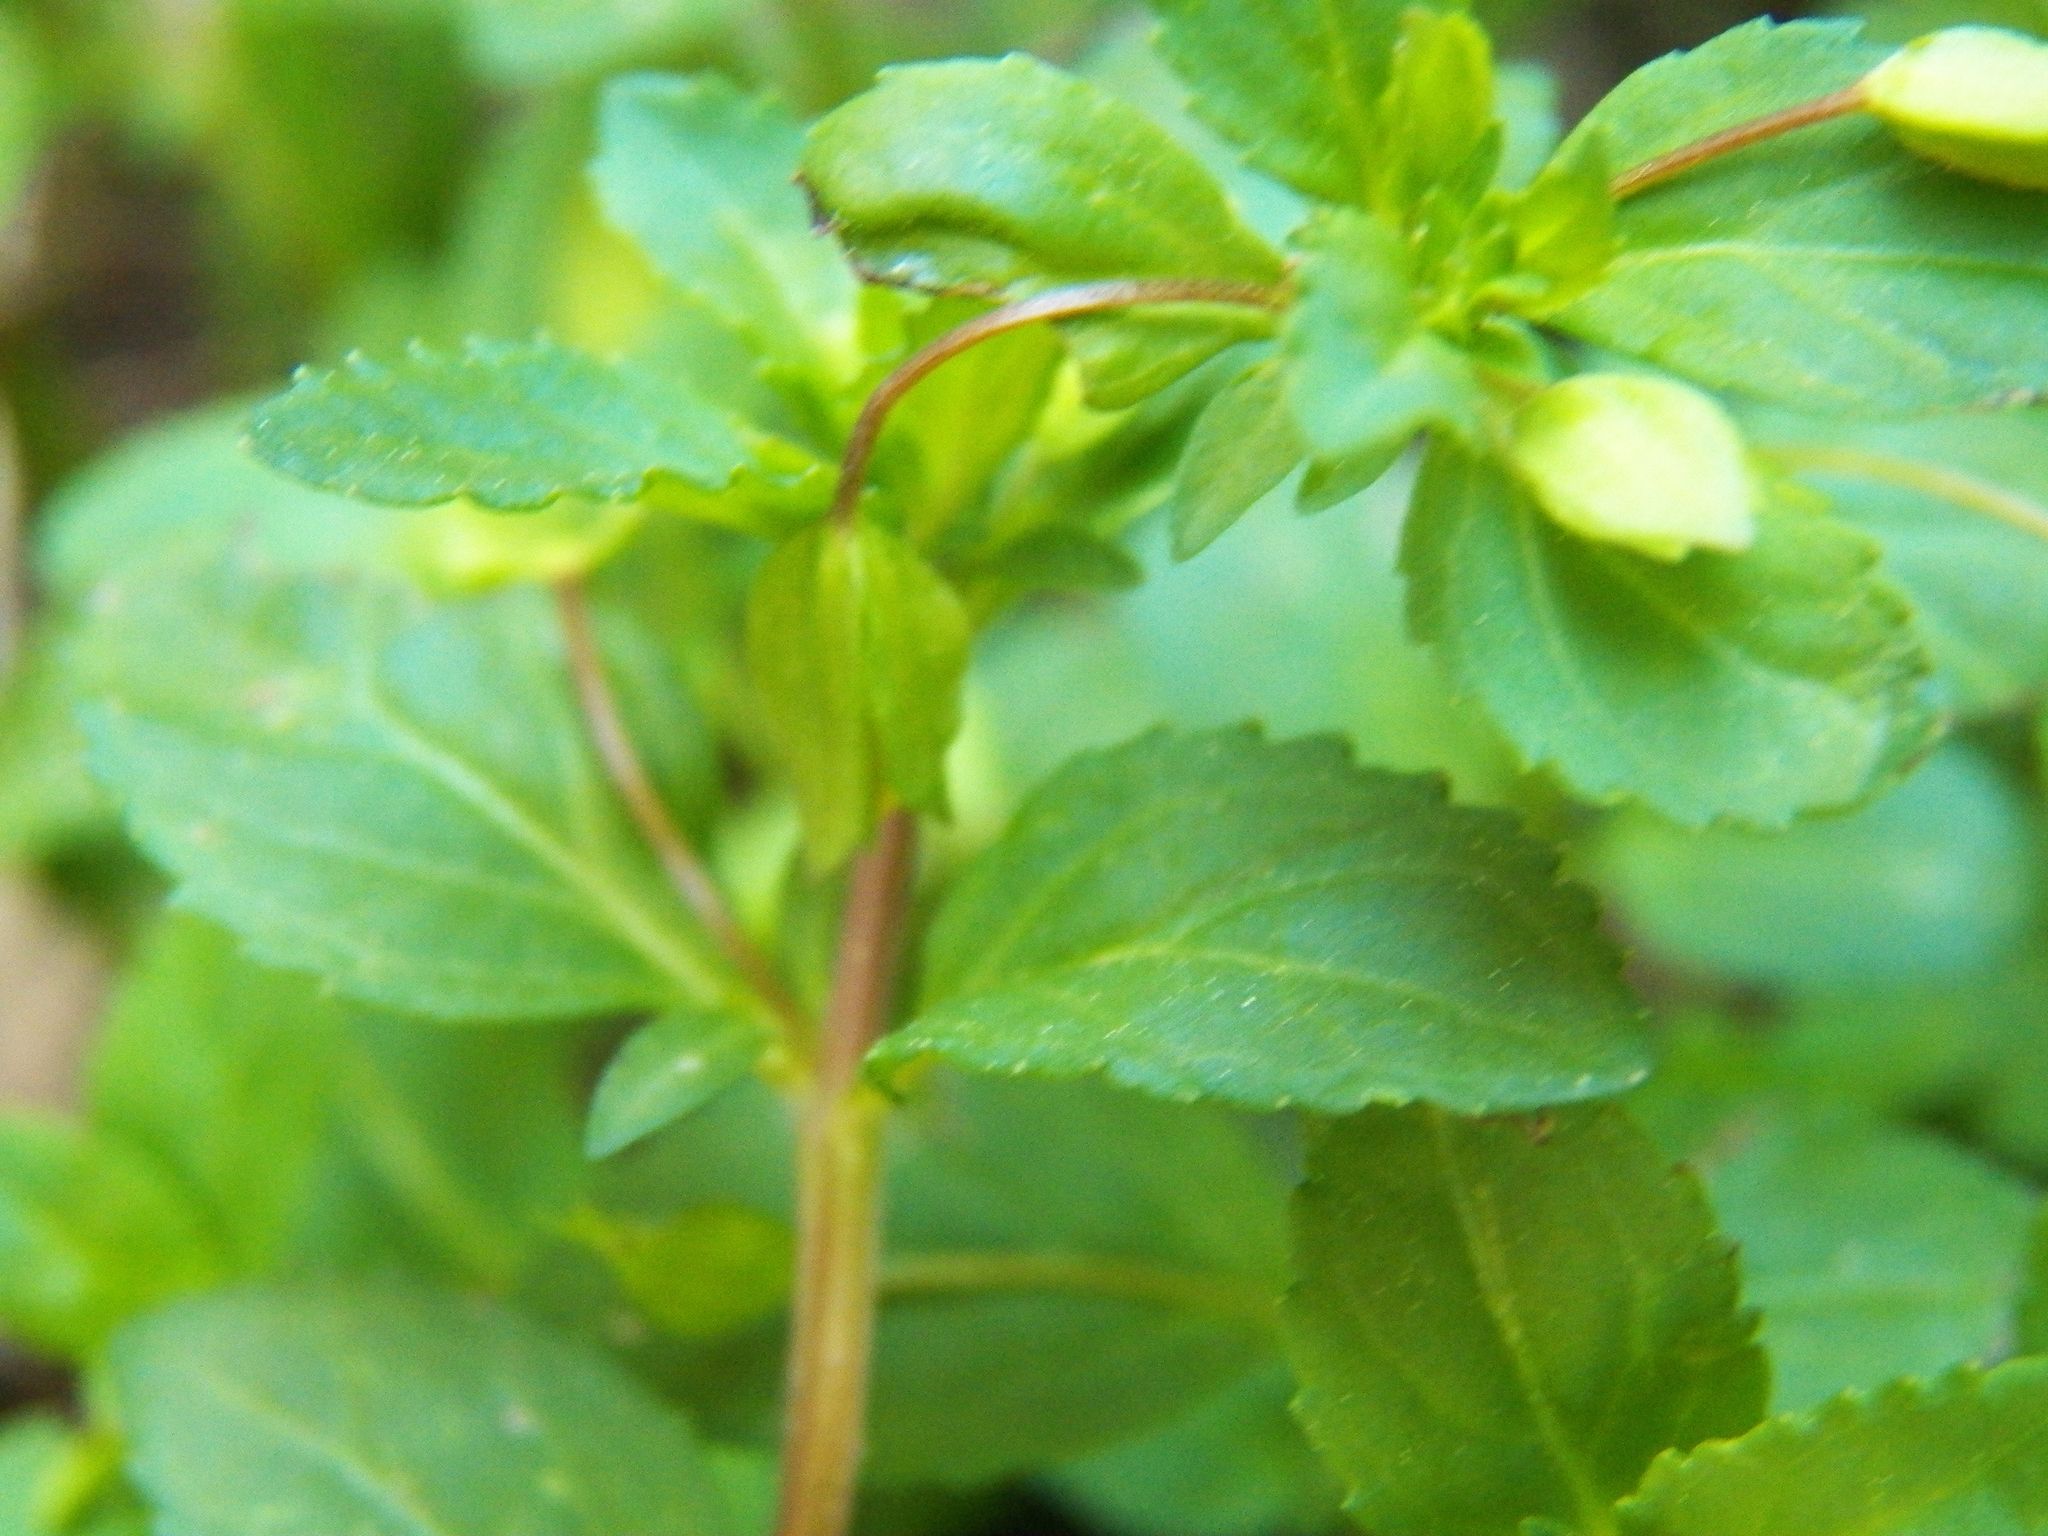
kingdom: Plantae
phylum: Tracheophyta
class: Magnoliopsida
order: Lamiales
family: Plantaginaceae
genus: Mecardonia
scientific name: Mecardonia procumbens
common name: Baby jump-up
